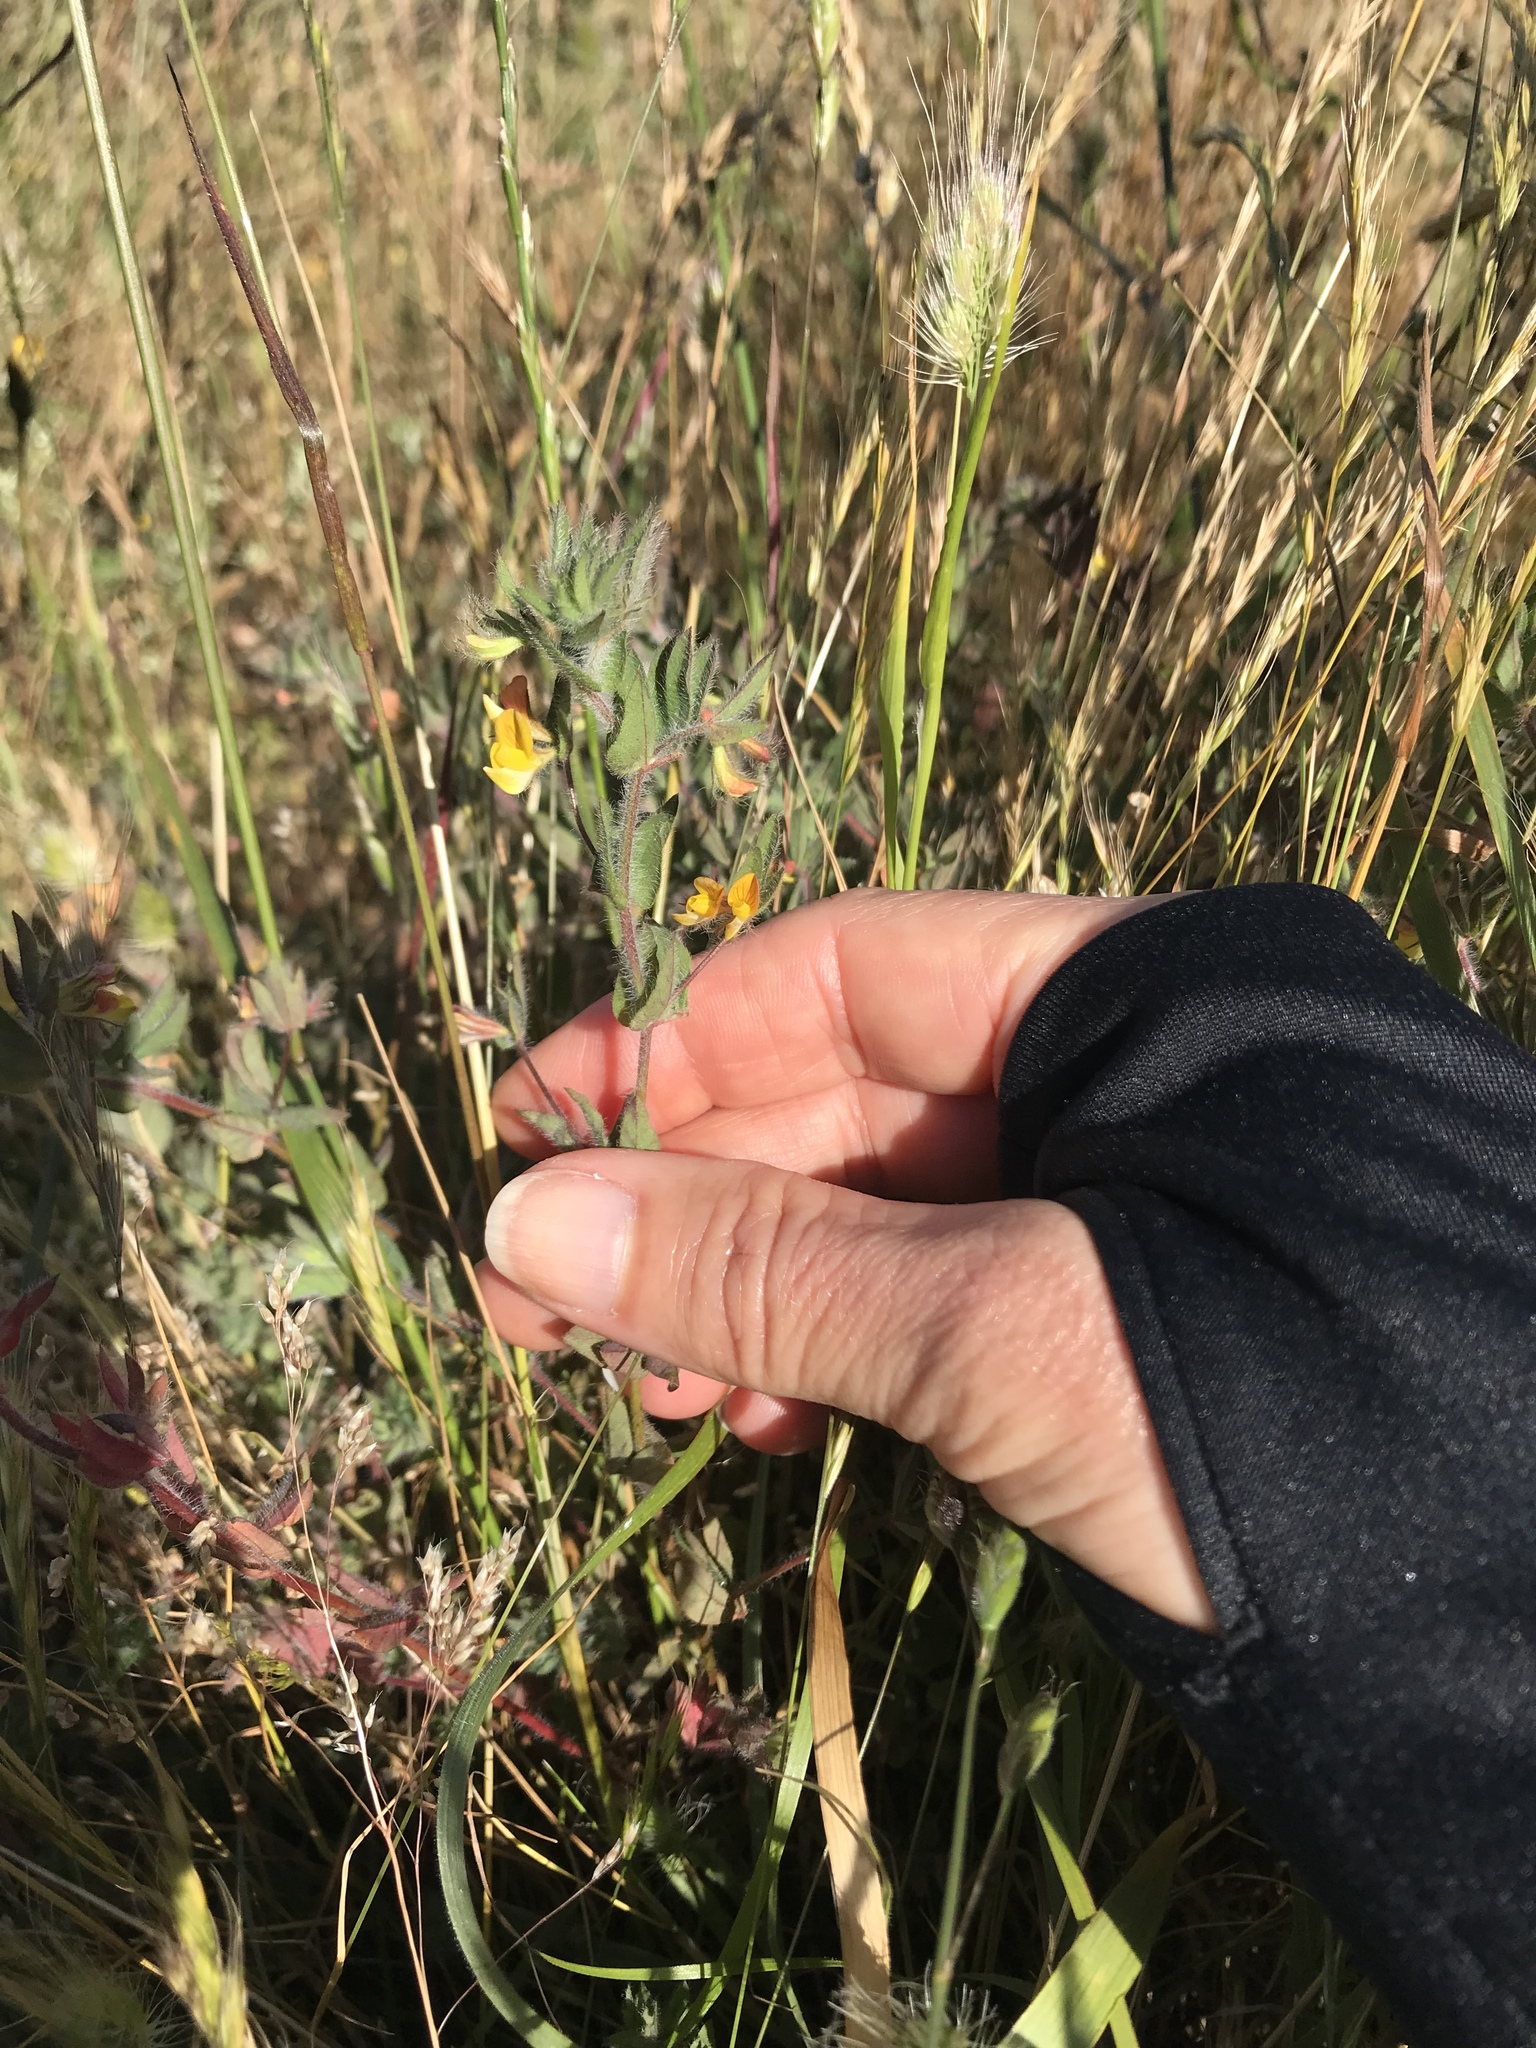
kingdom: Plantae
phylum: Tracheophyta
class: Magnoliopsida
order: Fabales
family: Fabaceae
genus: Lotus
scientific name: Lotus angustissimus
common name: Slender bird's-foot trefoil
